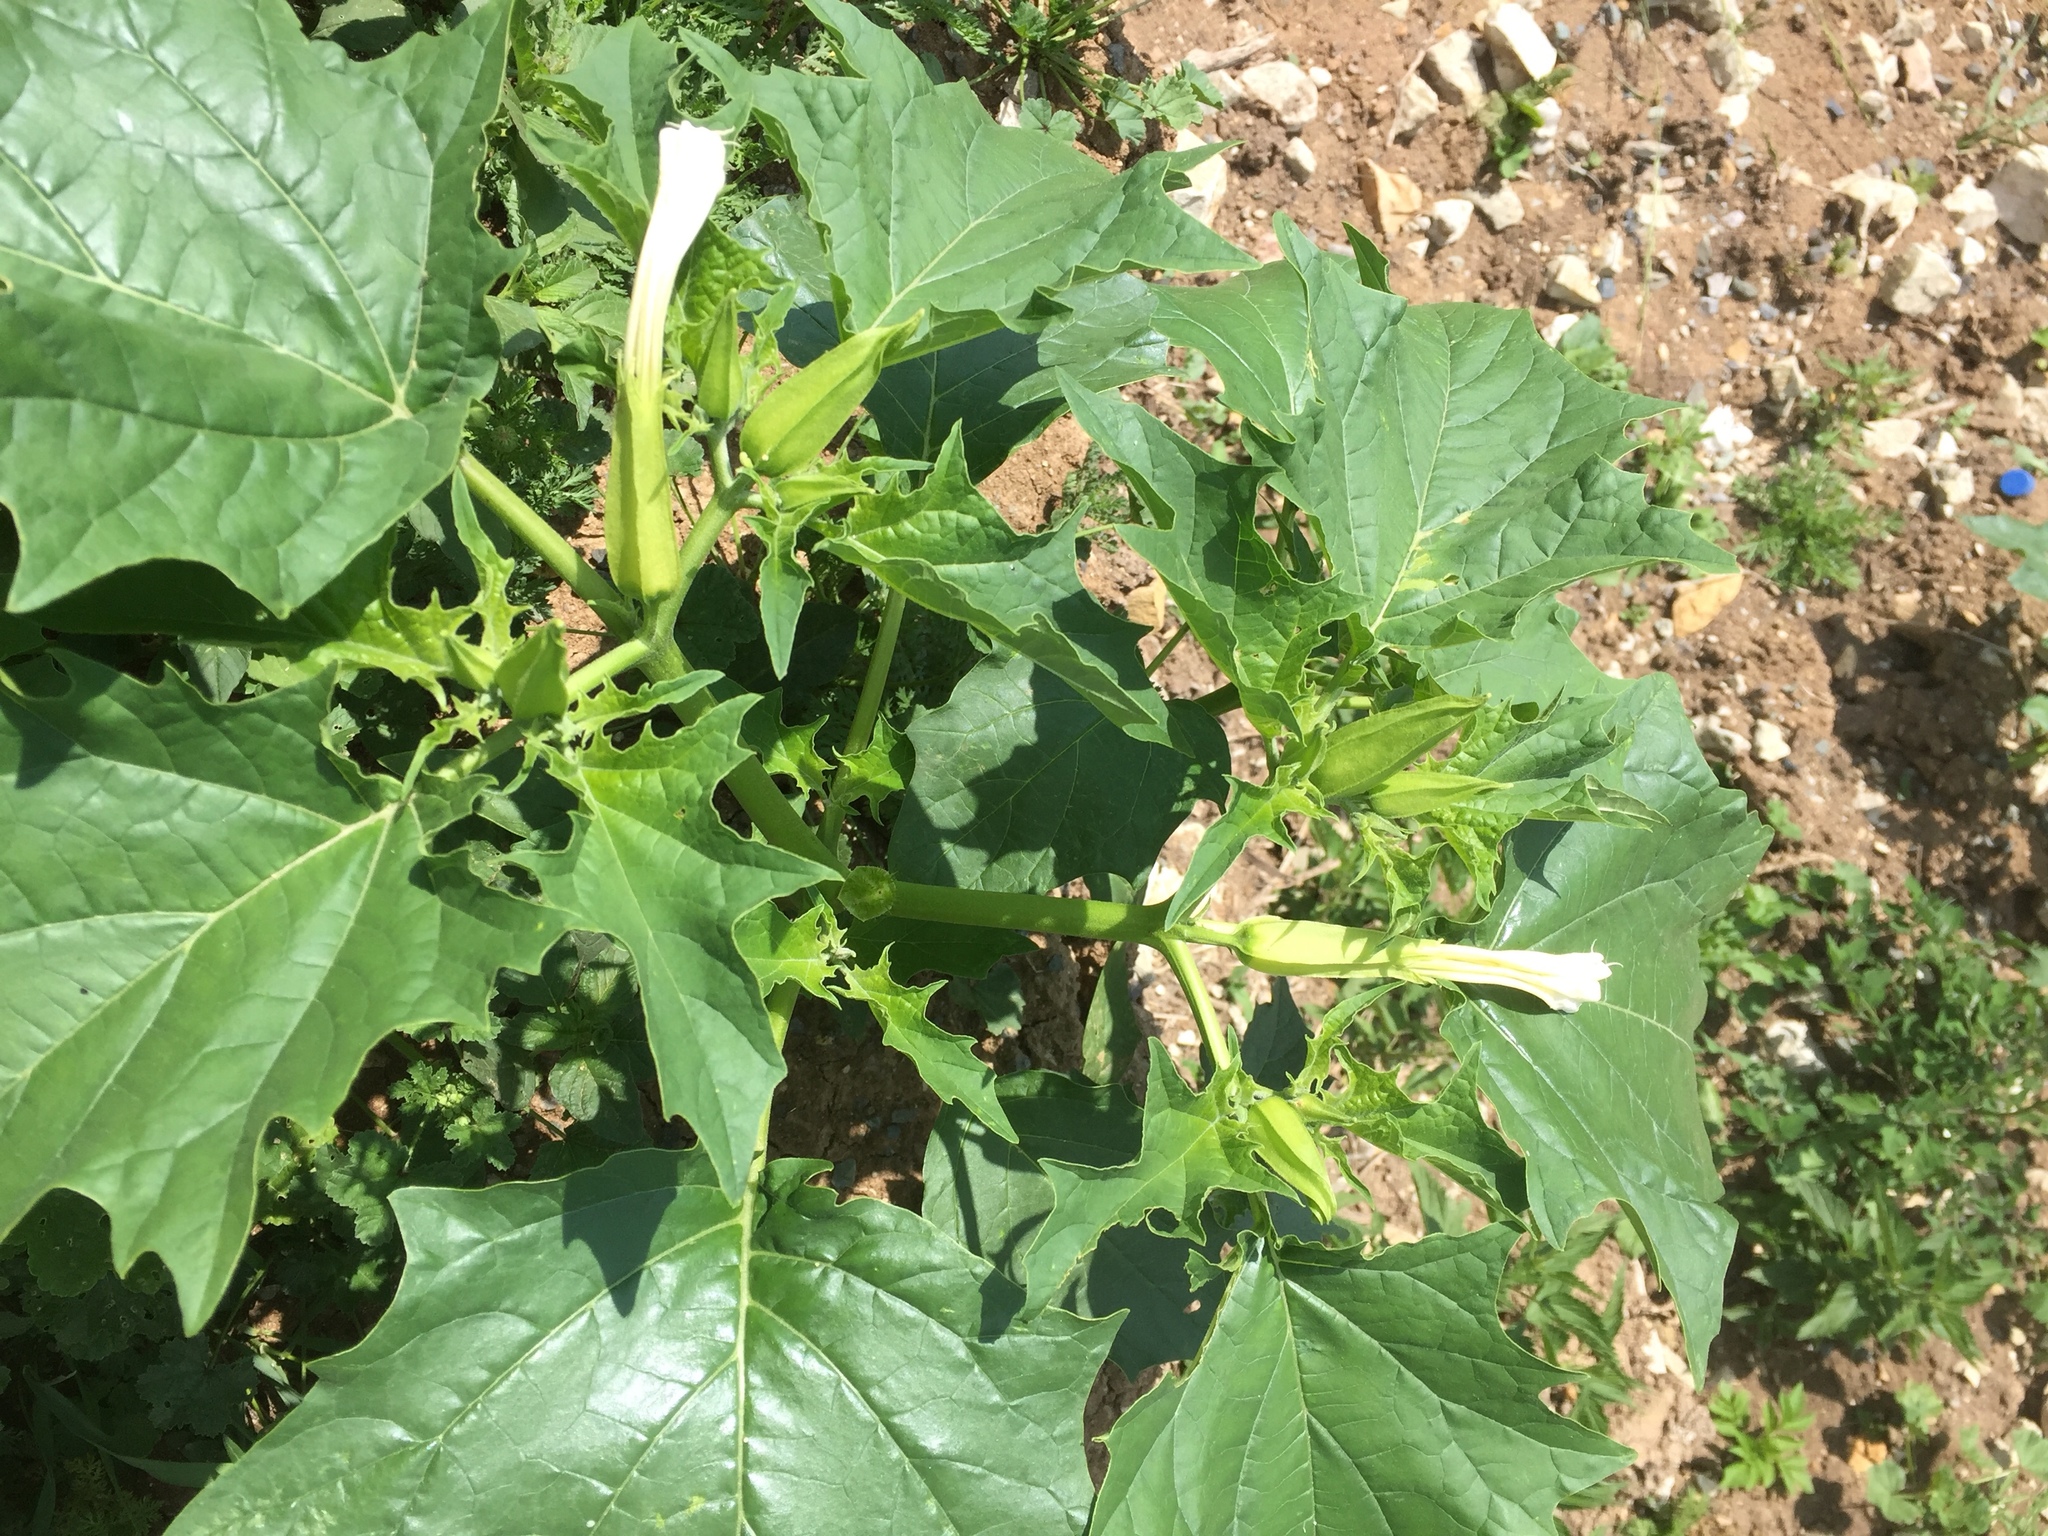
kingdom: Plantae
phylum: Tracheophyta
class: Magnoliopsida
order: Solanales
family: Solanaceae
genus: Datura
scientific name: Datura stramonium
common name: Thorn-apple
